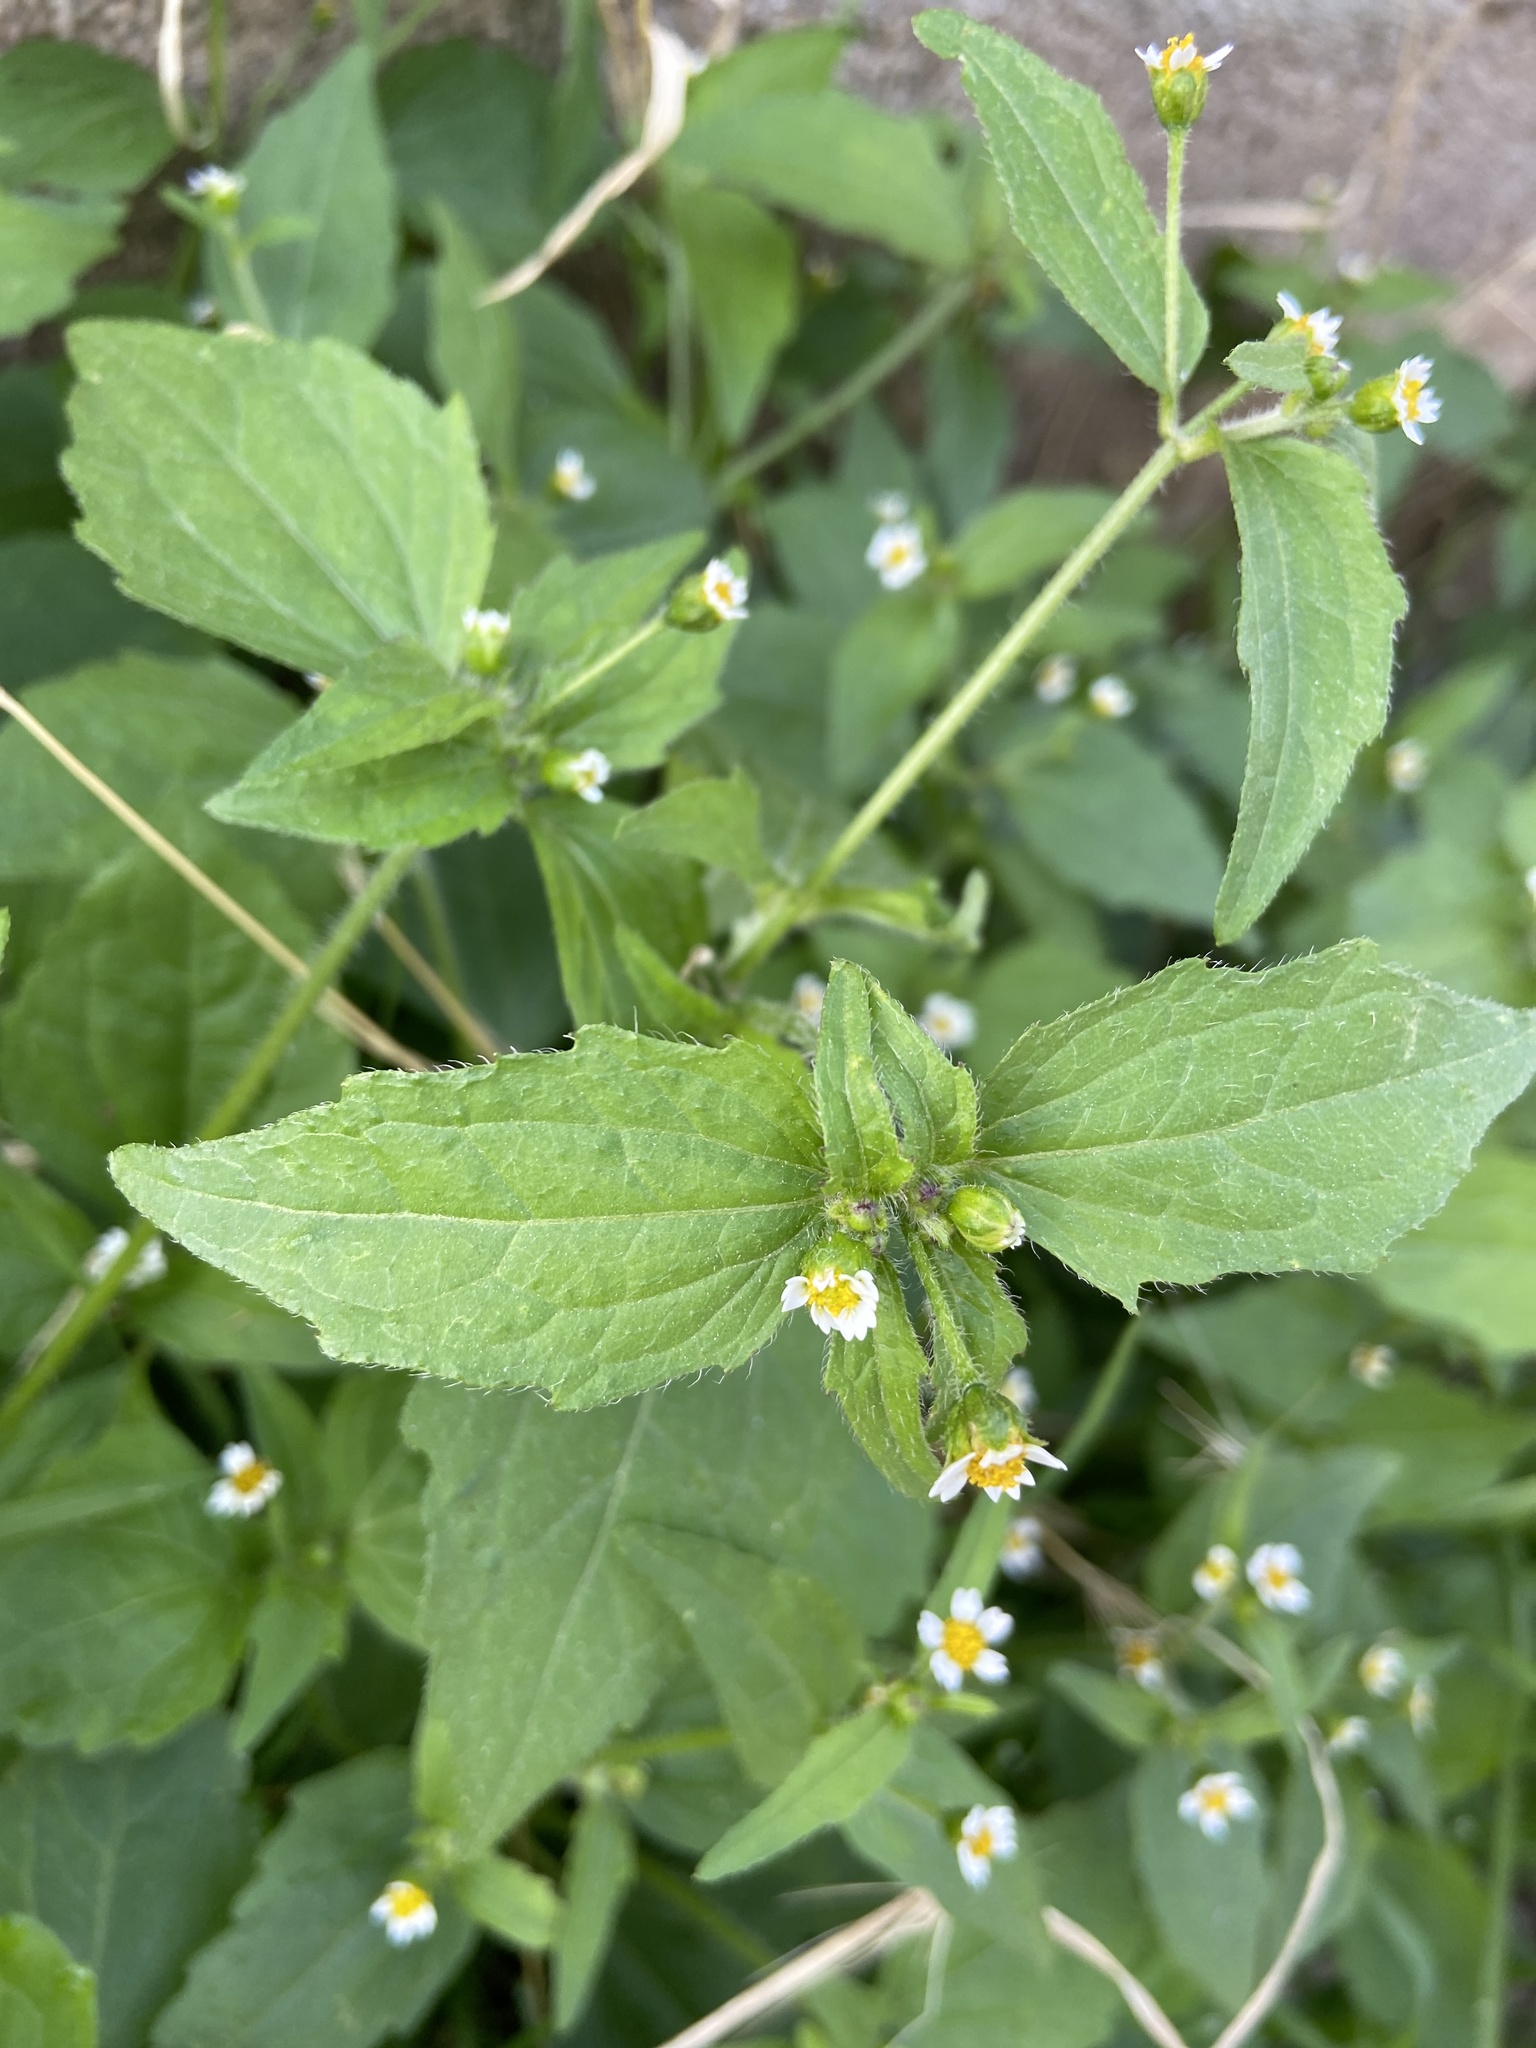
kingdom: Plantae
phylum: Tracheophyta
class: Magnoliopsida
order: Asterales
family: Asteraceae
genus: Galinsoga
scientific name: Galinsoga quadriradiata
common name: Shaggy soldier
